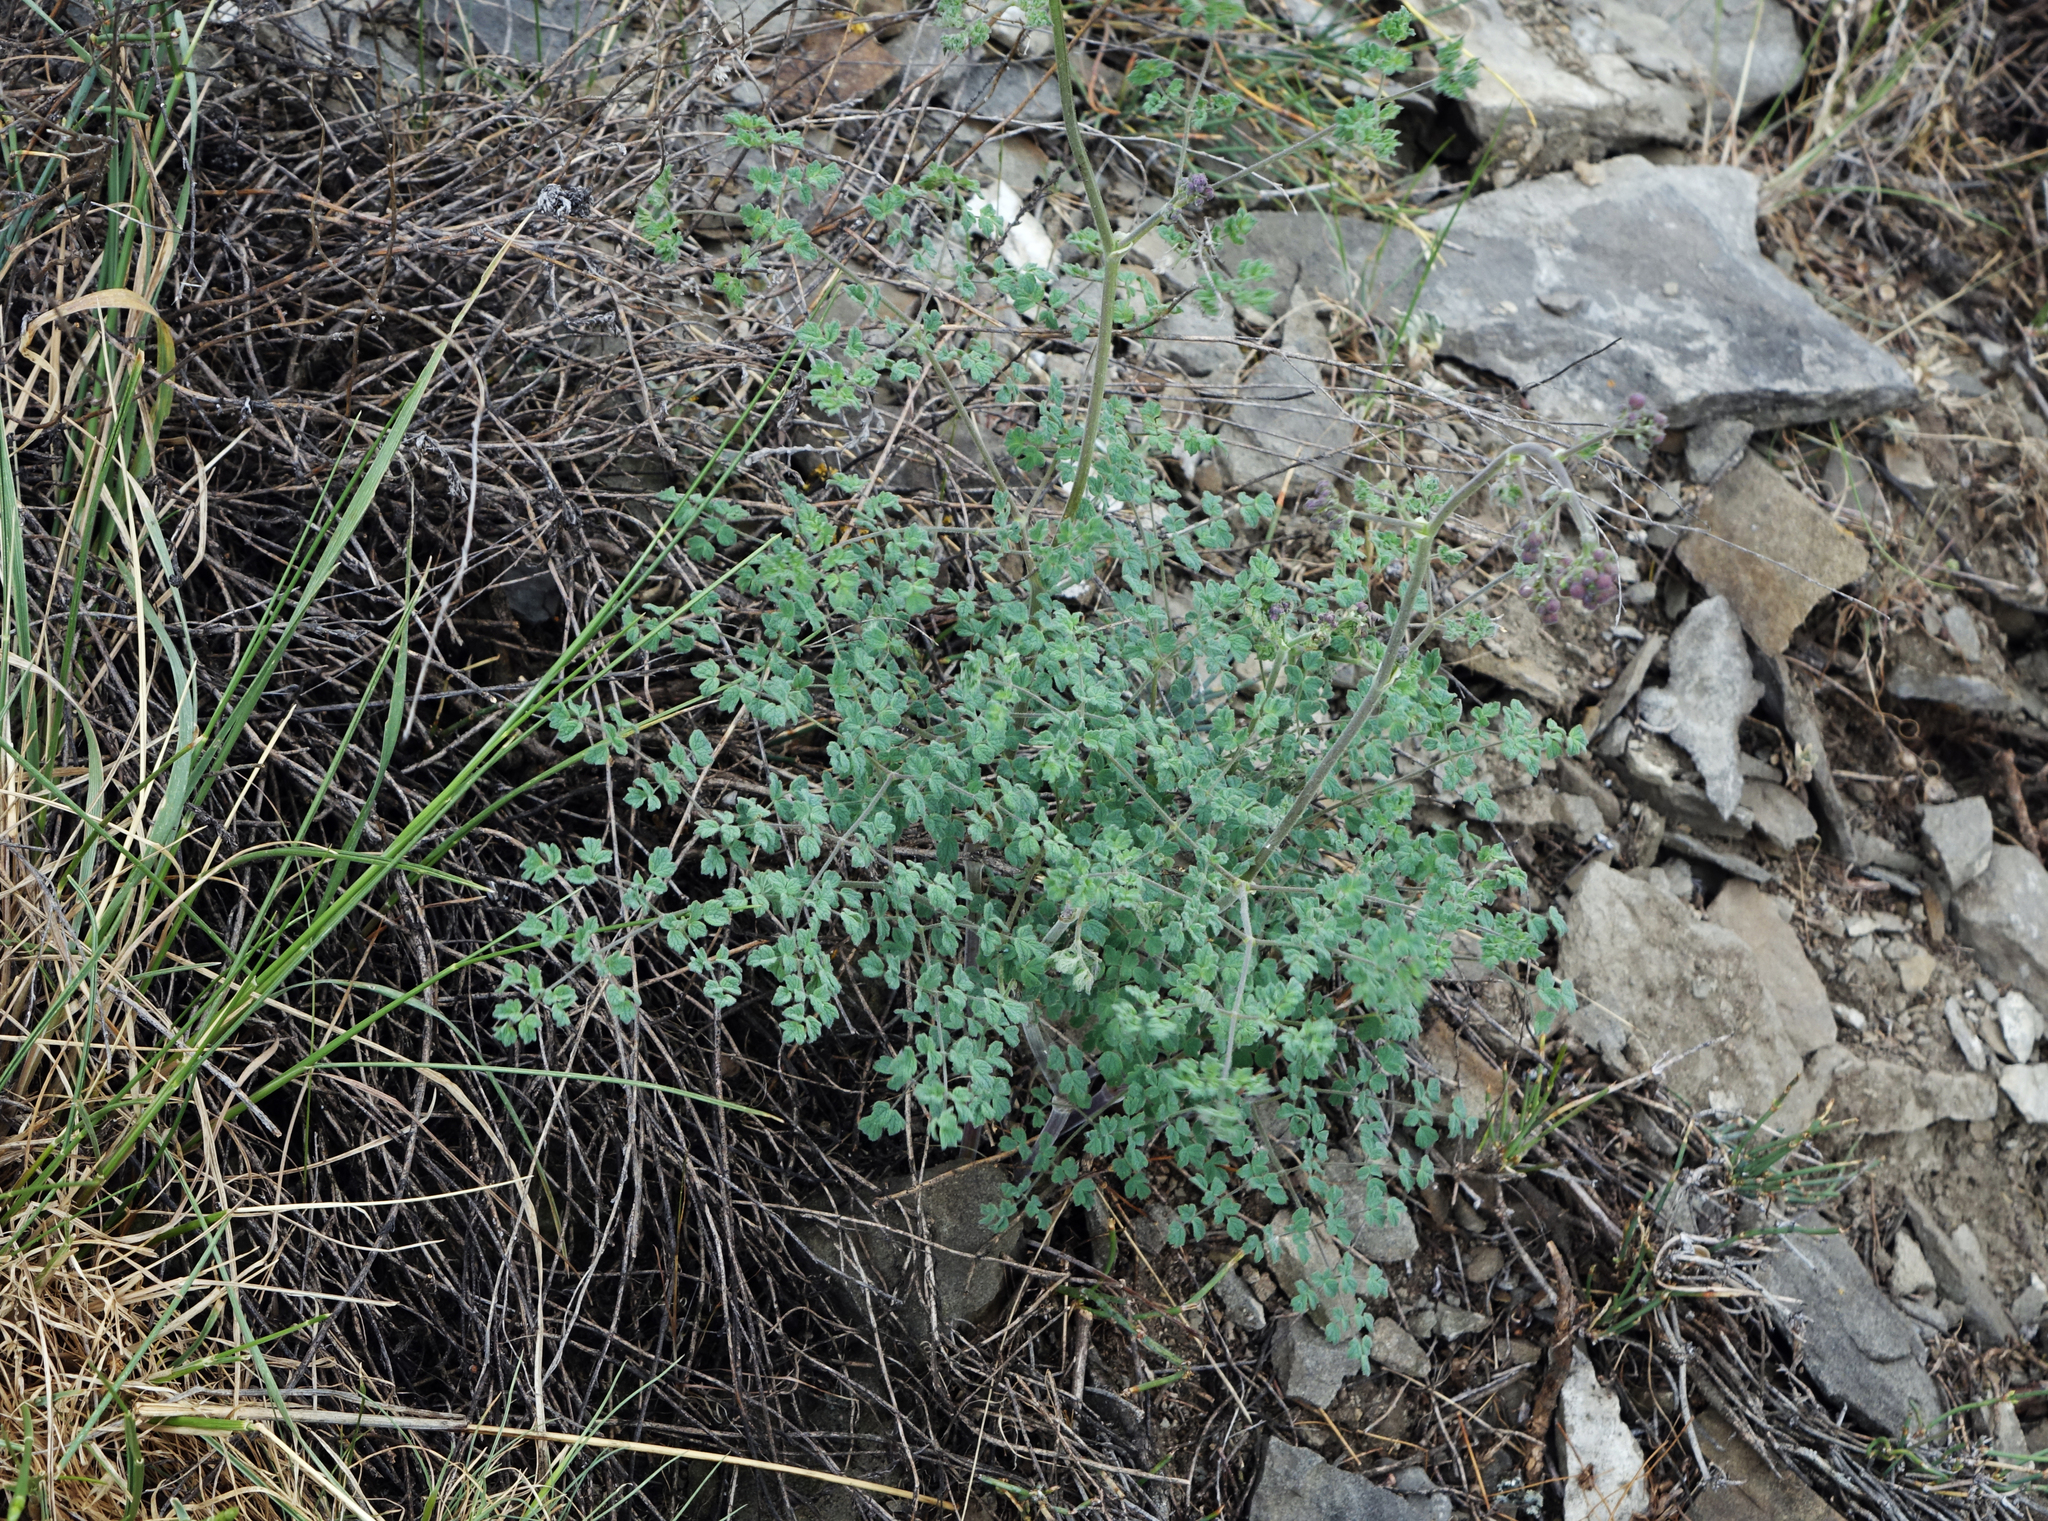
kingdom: Plantae
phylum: Tracheophyta
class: Magnoliopsida
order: Ranunculales
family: Ranunculaceae
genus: Thalictrum
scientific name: Thalictrum foetidum
